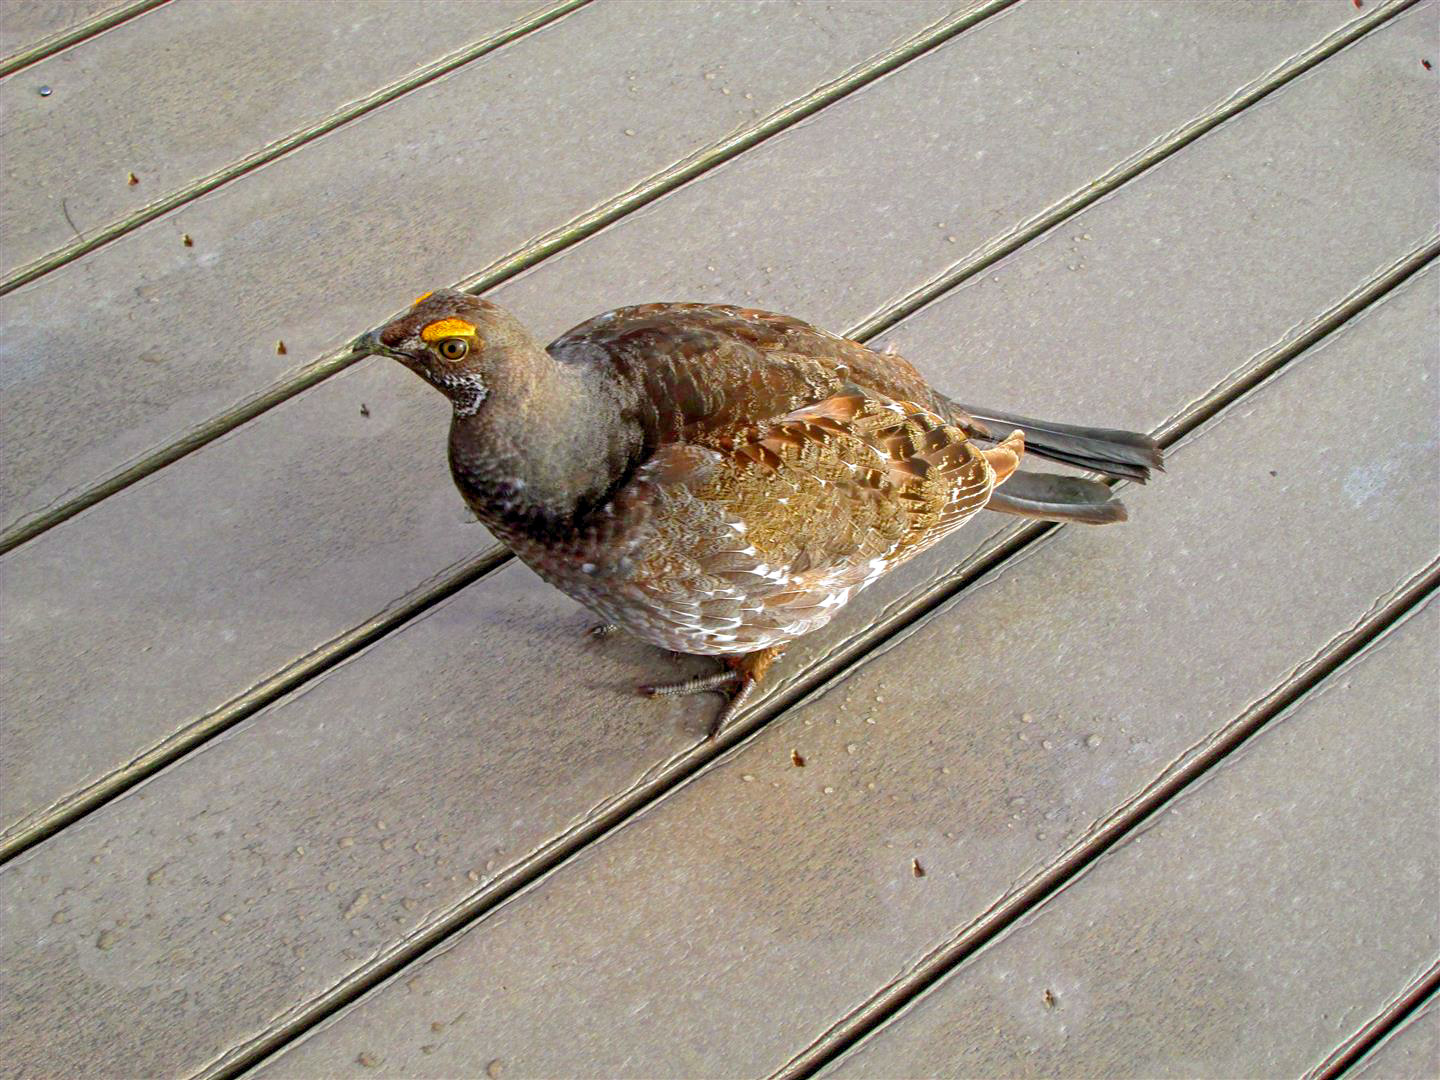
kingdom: Animalia
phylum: Chordata
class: Aves
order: Galliformes
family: Phasianidae
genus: Dendragapus
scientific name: Dendragapus obscurus
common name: Dusky grouse
